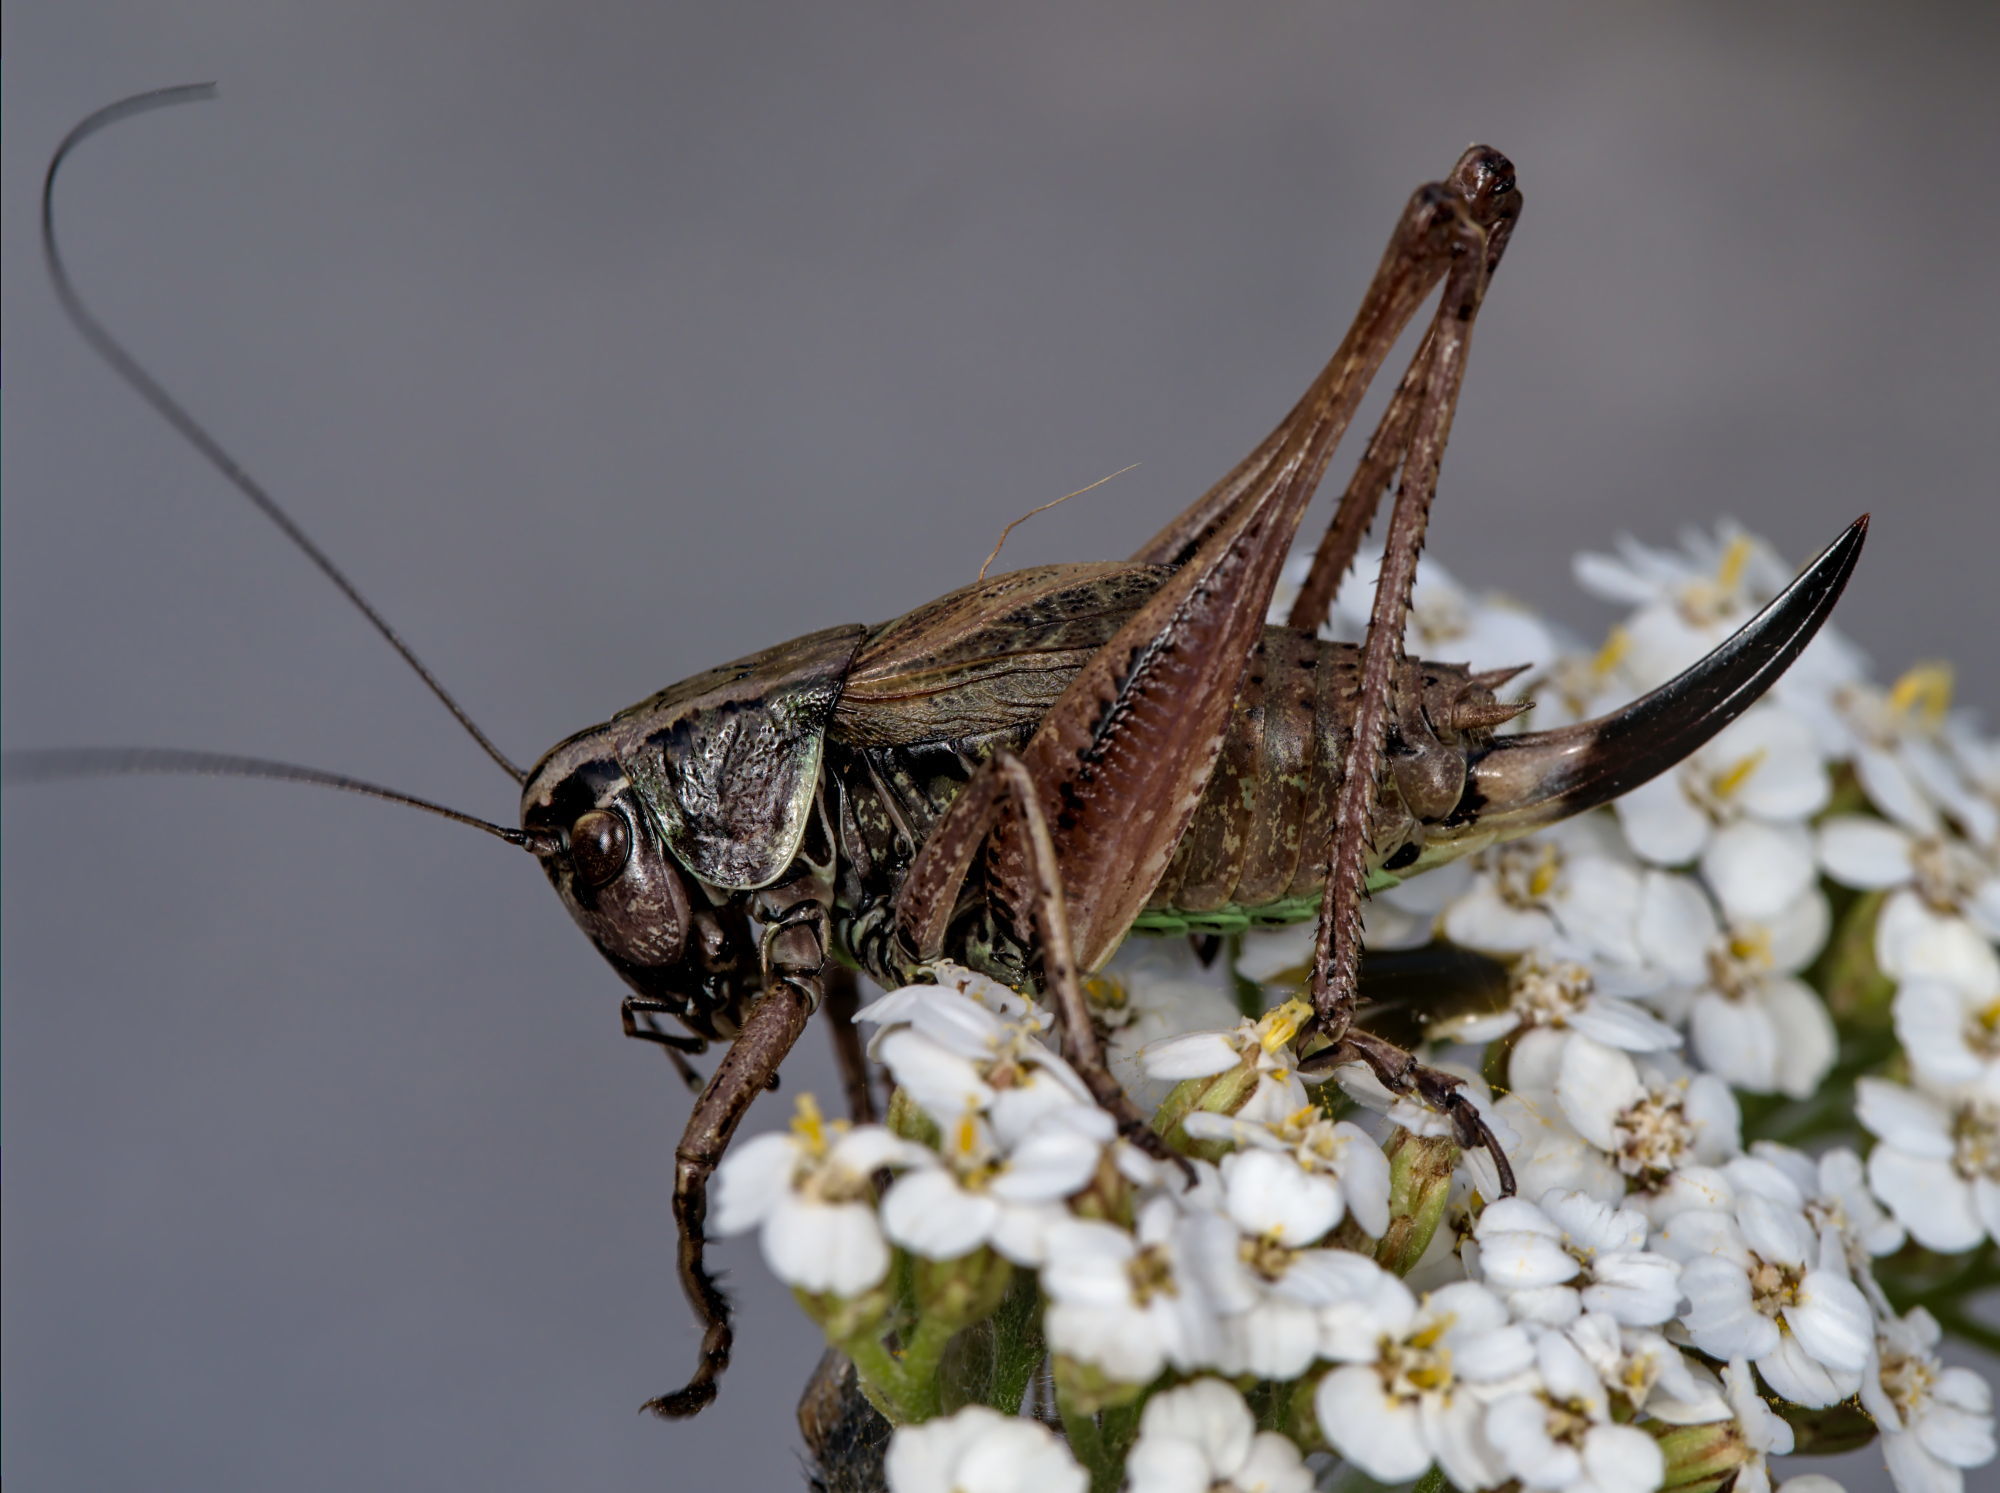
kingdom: Animalia
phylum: Arthropoda
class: Insecta
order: Orthoptera
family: Tettigoniidae
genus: Metrioptera
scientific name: Metrioptera saussuriana
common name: Purple meadow bush-cricket
